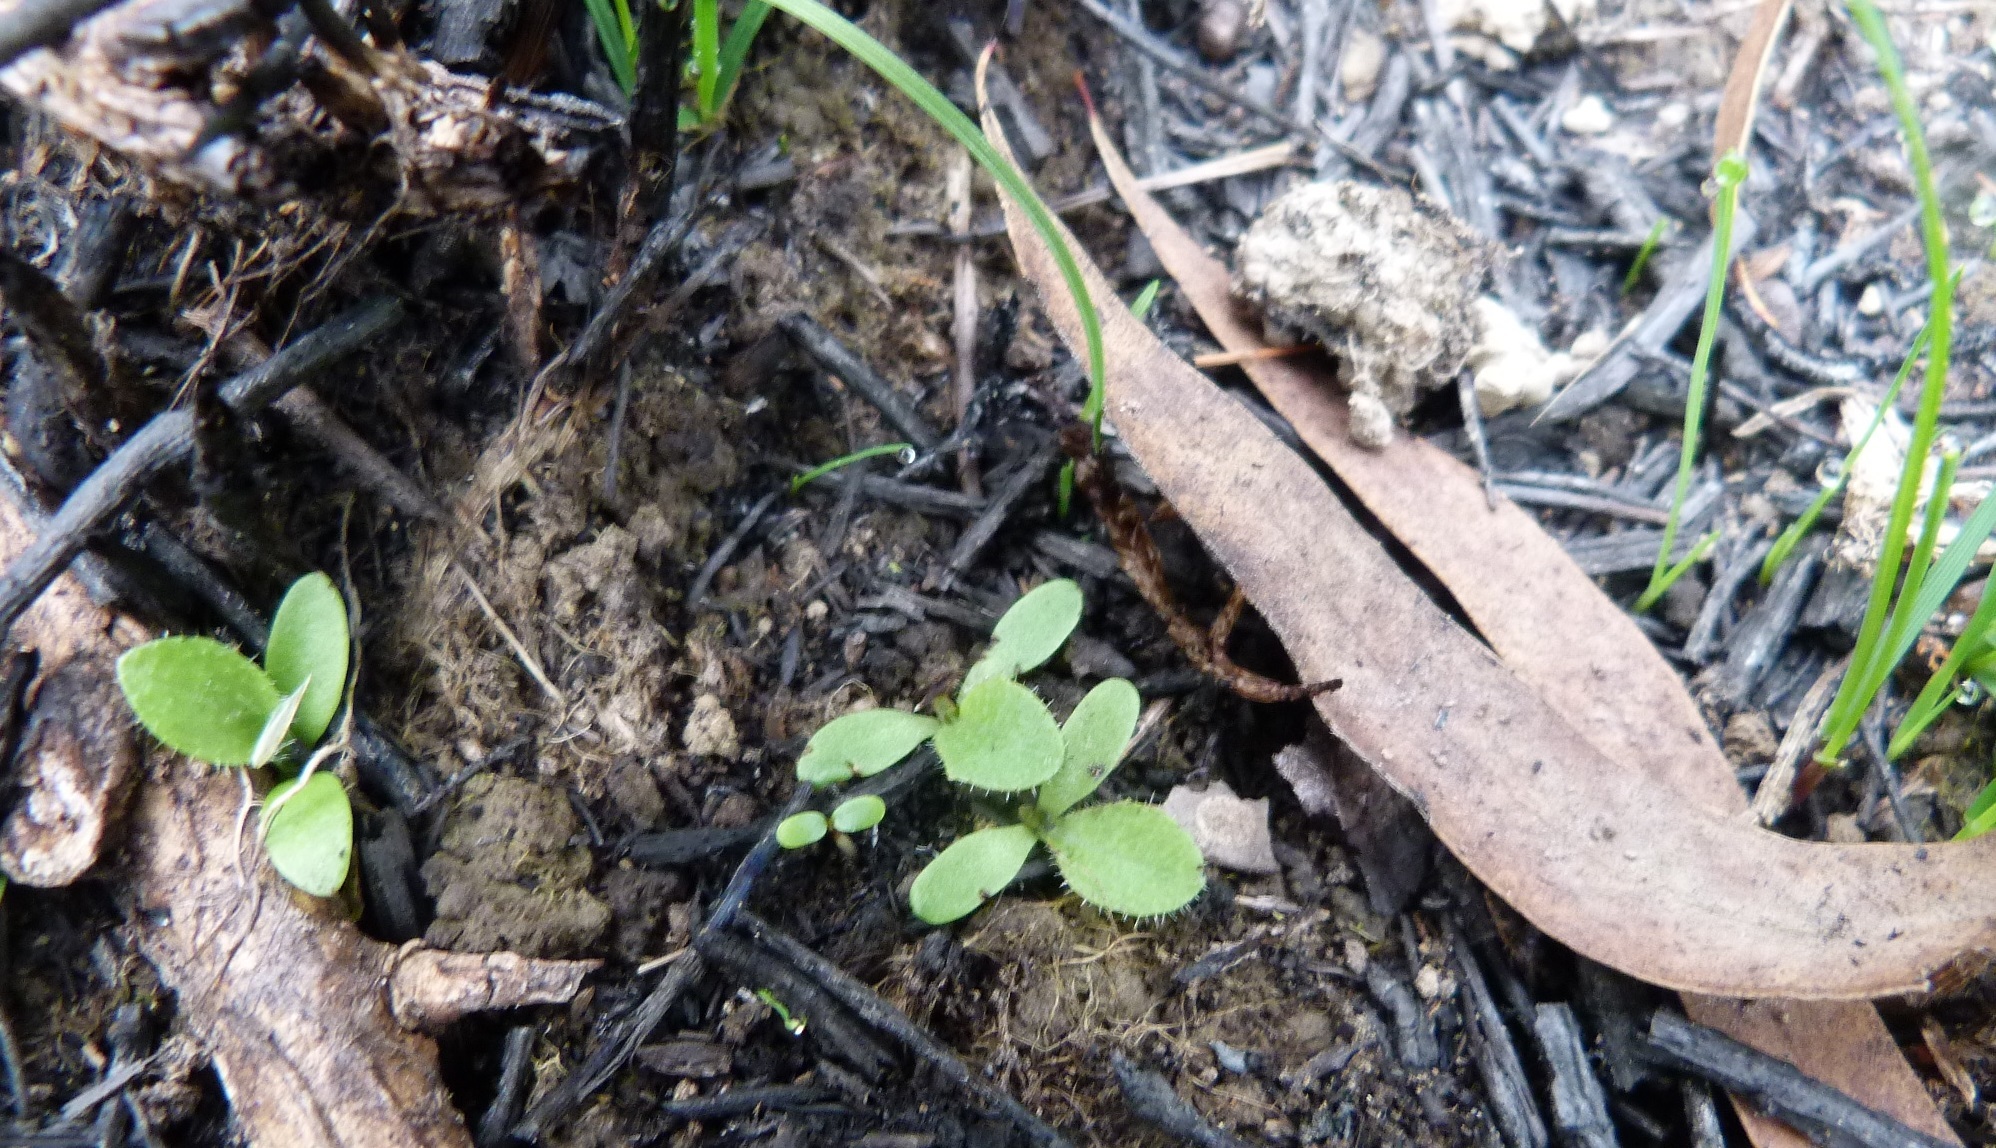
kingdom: Plantae
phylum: Tracheophyta
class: Magnoliopsida
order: Asterales
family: Asteraceae
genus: Cirsium
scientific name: Cirsium vulgare
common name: Bull thistle
